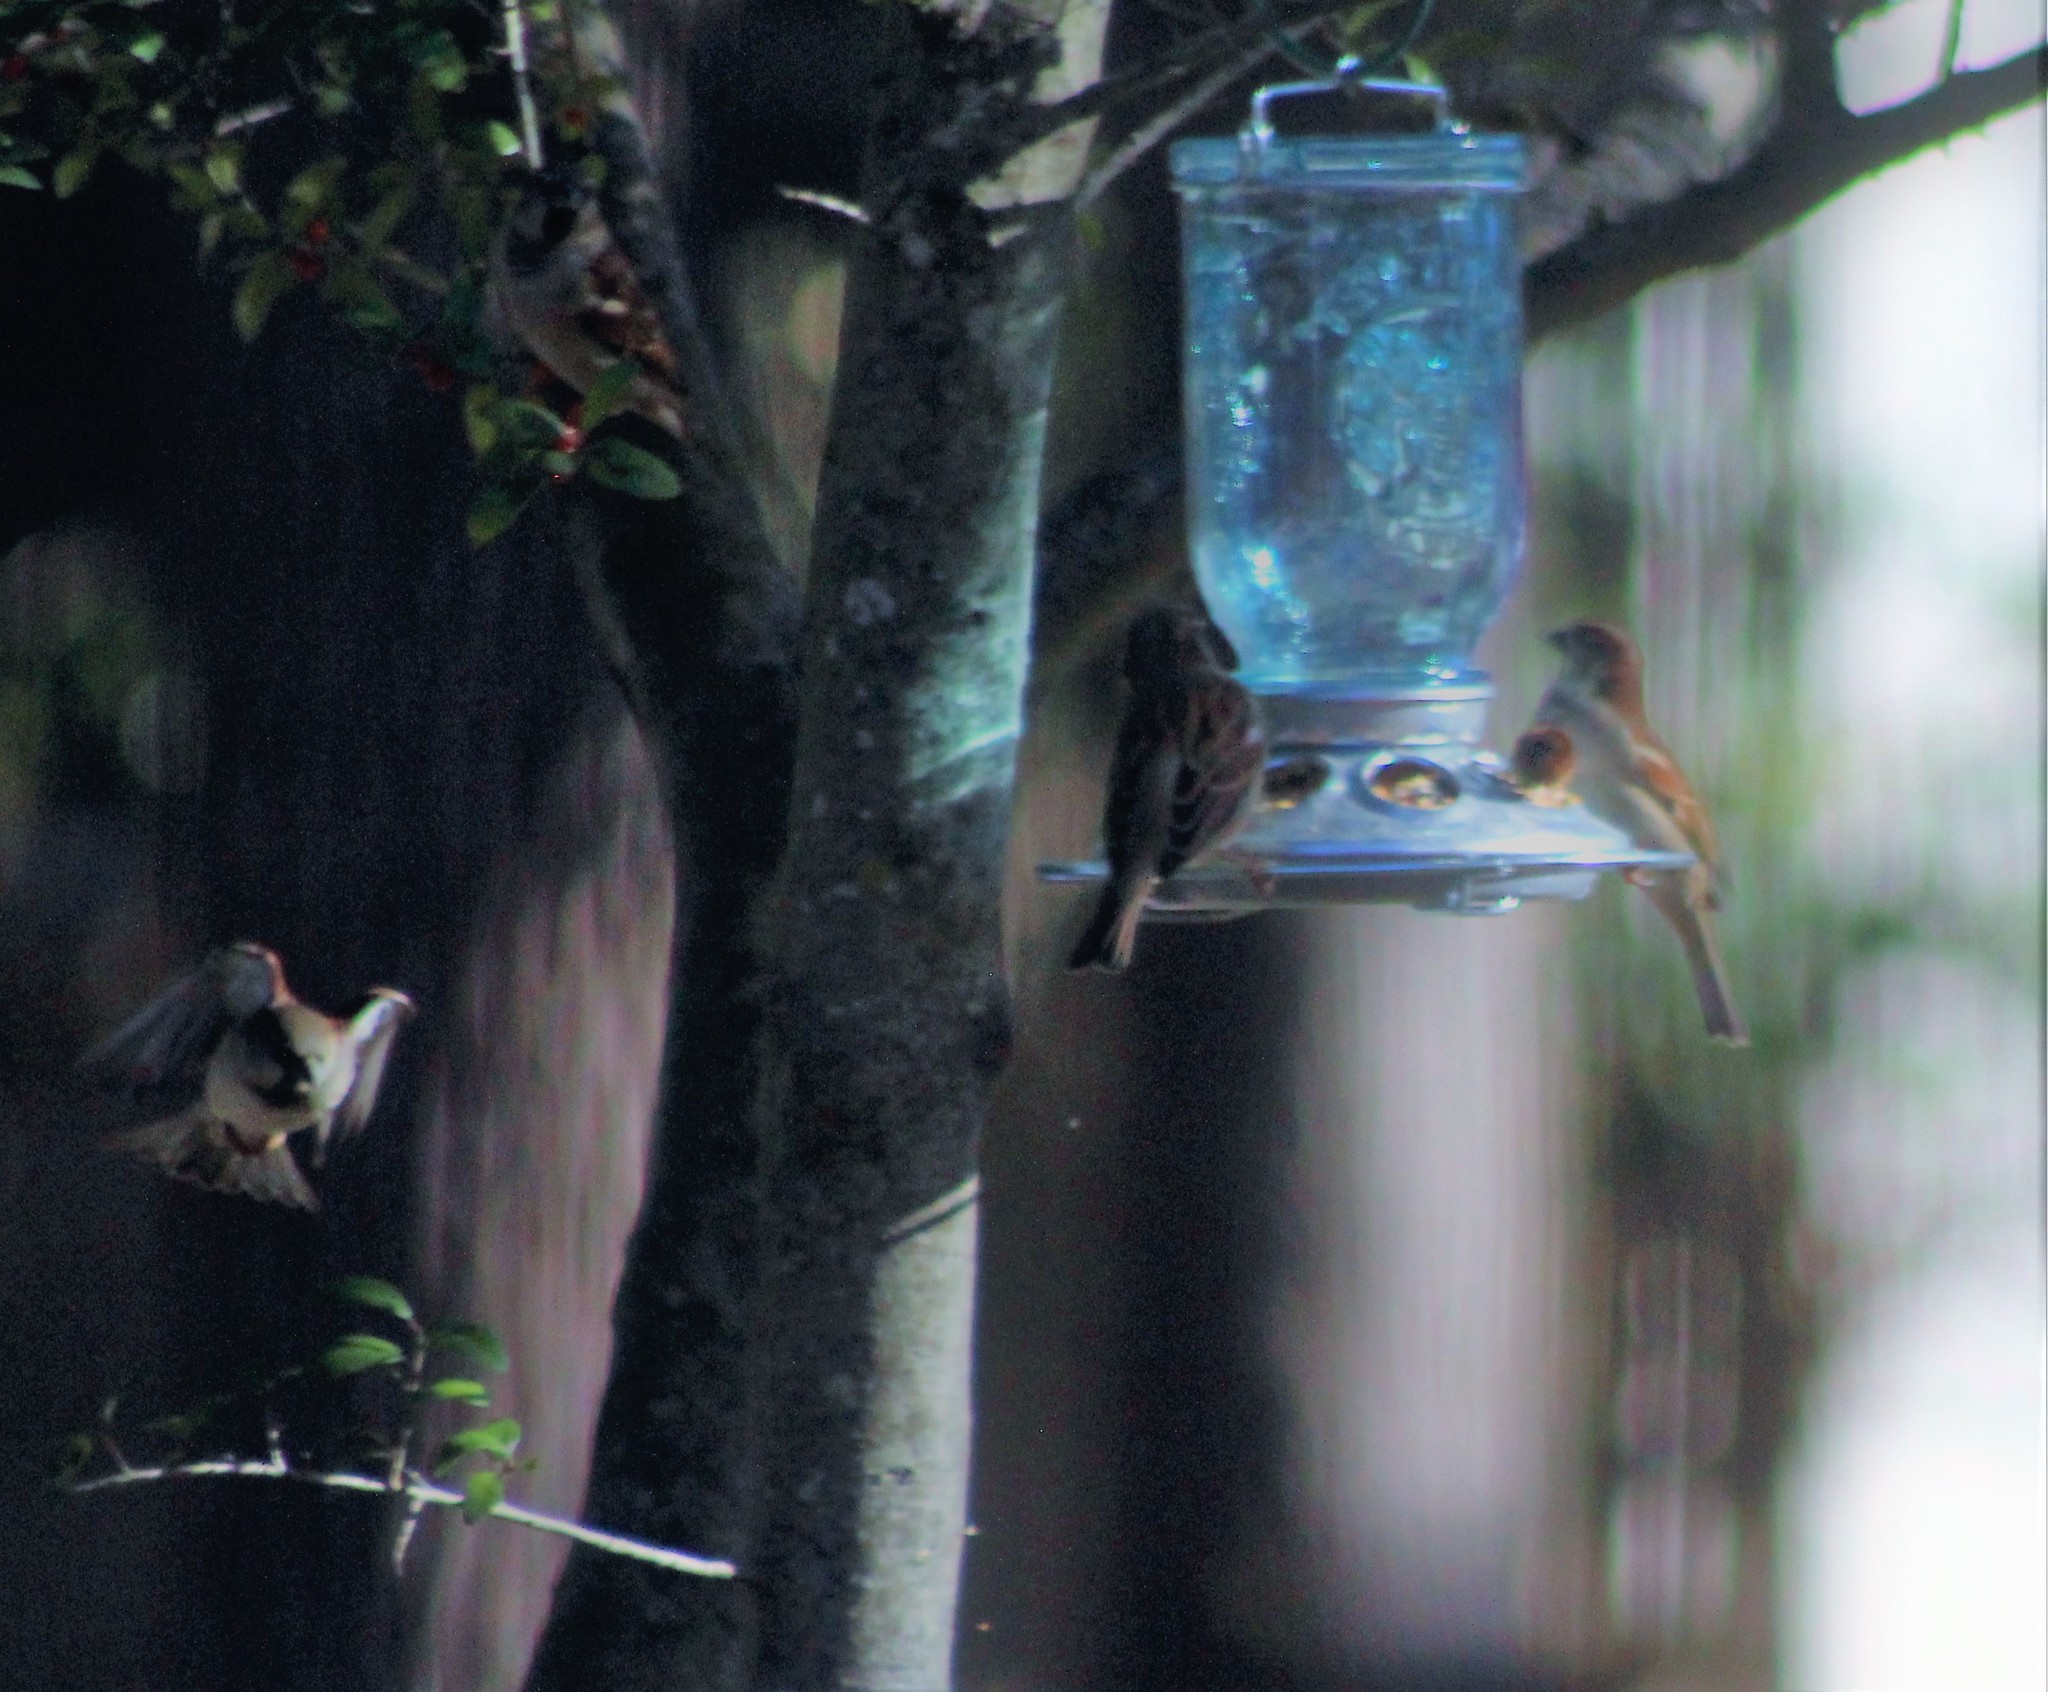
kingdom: Animalia
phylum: Chordata
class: Aves
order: Passeriformes
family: Passeridae
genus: Passer
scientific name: Passer domesticus
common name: House sparrow
